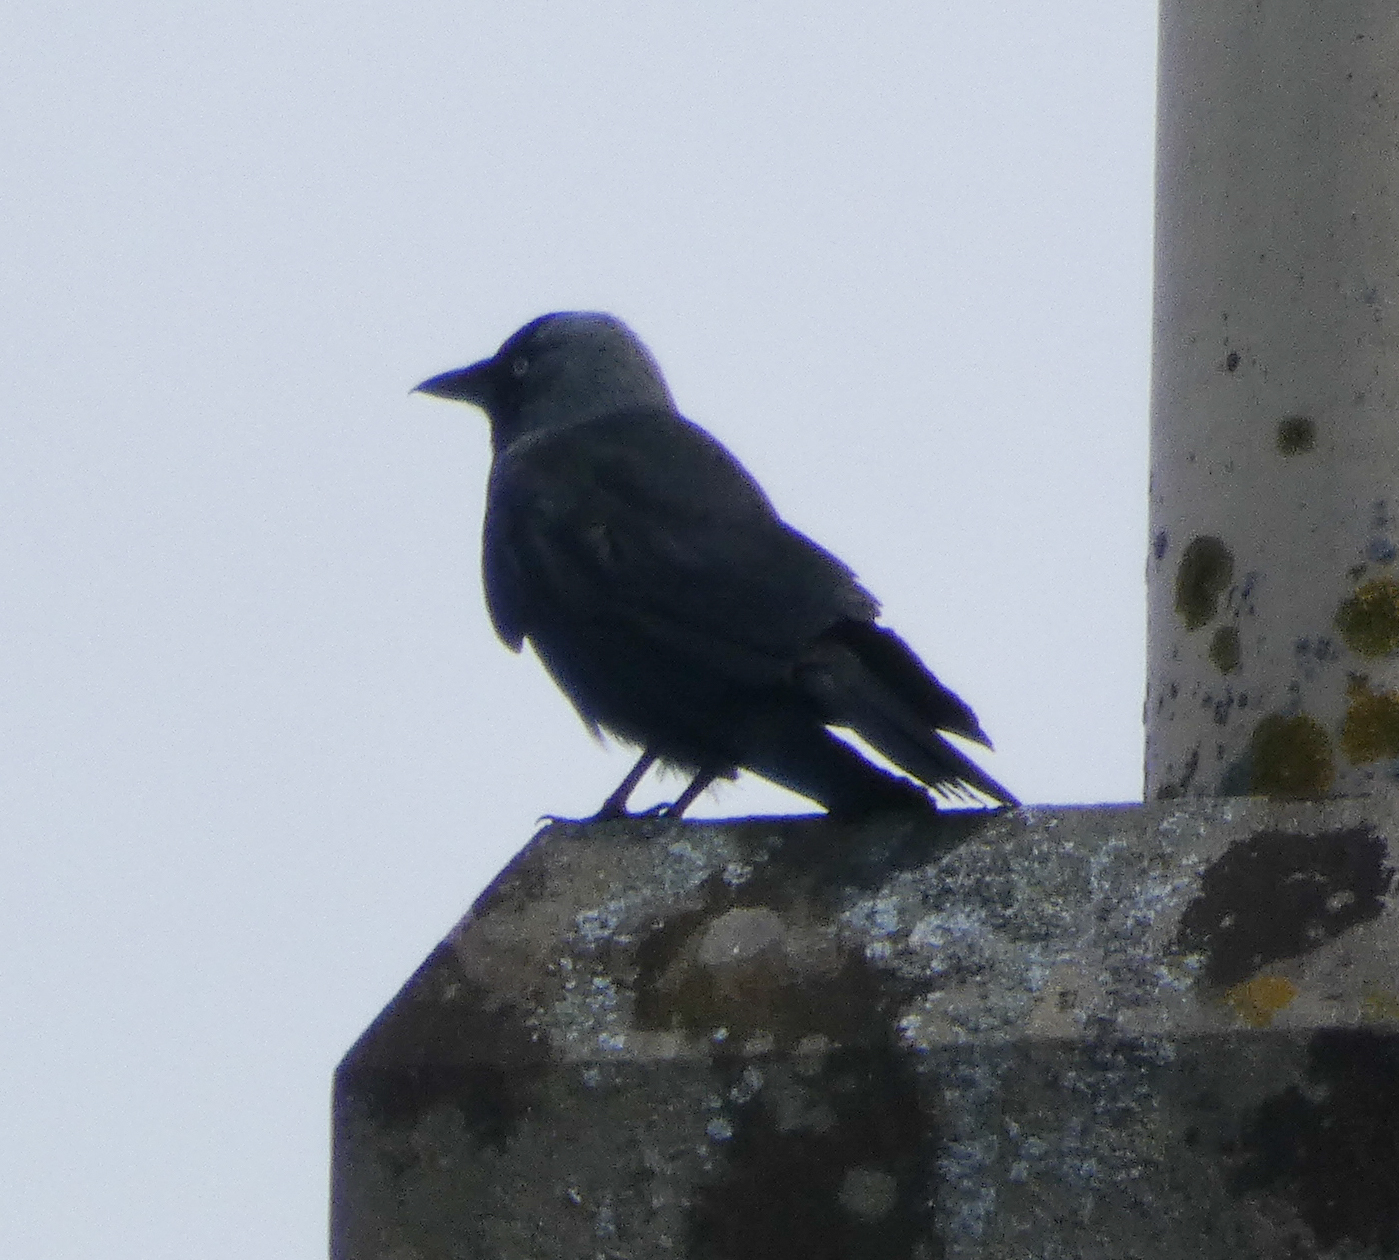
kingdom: Animalia
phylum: Chordata
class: Aves
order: Passeriformes
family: Corvidae
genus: Coloeus
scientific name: Coloeus monedula
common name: Western jackdaw
